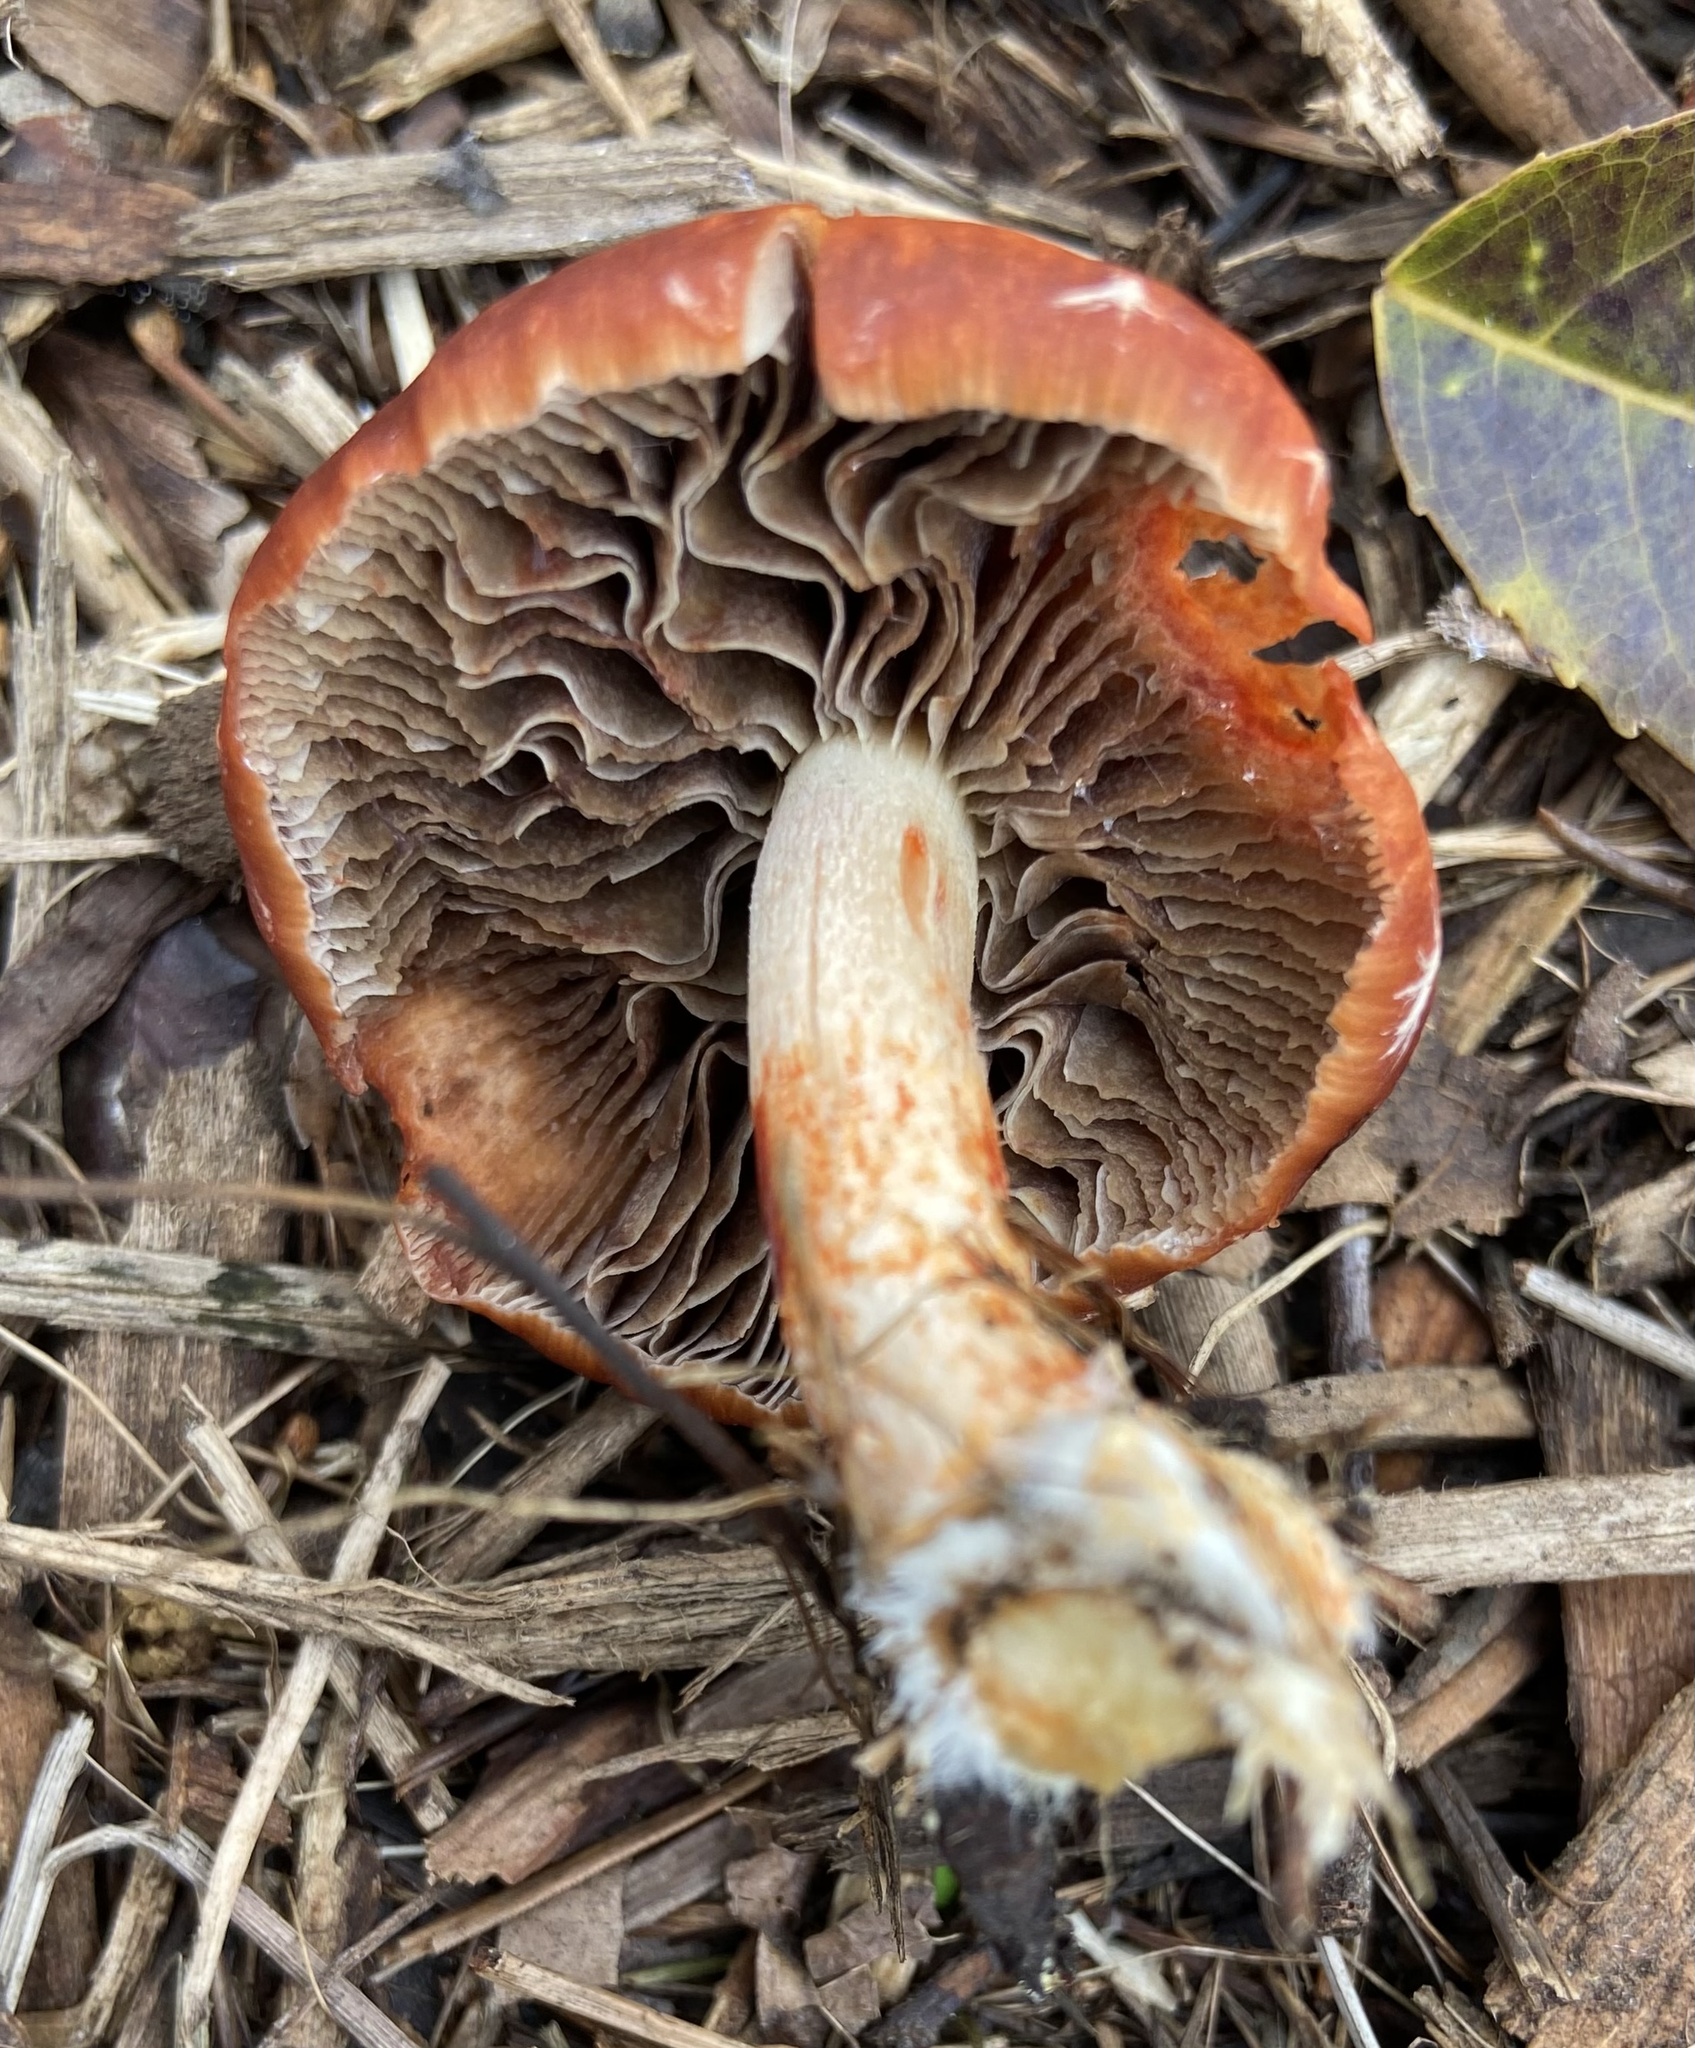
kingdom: Fungi
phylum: Basidiomycota
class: Agaricomycetes
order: Agaricales
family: Strophariaceae
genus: Leratiomyces
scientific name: Leratiomyces ceres
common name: Redlead roundhead
